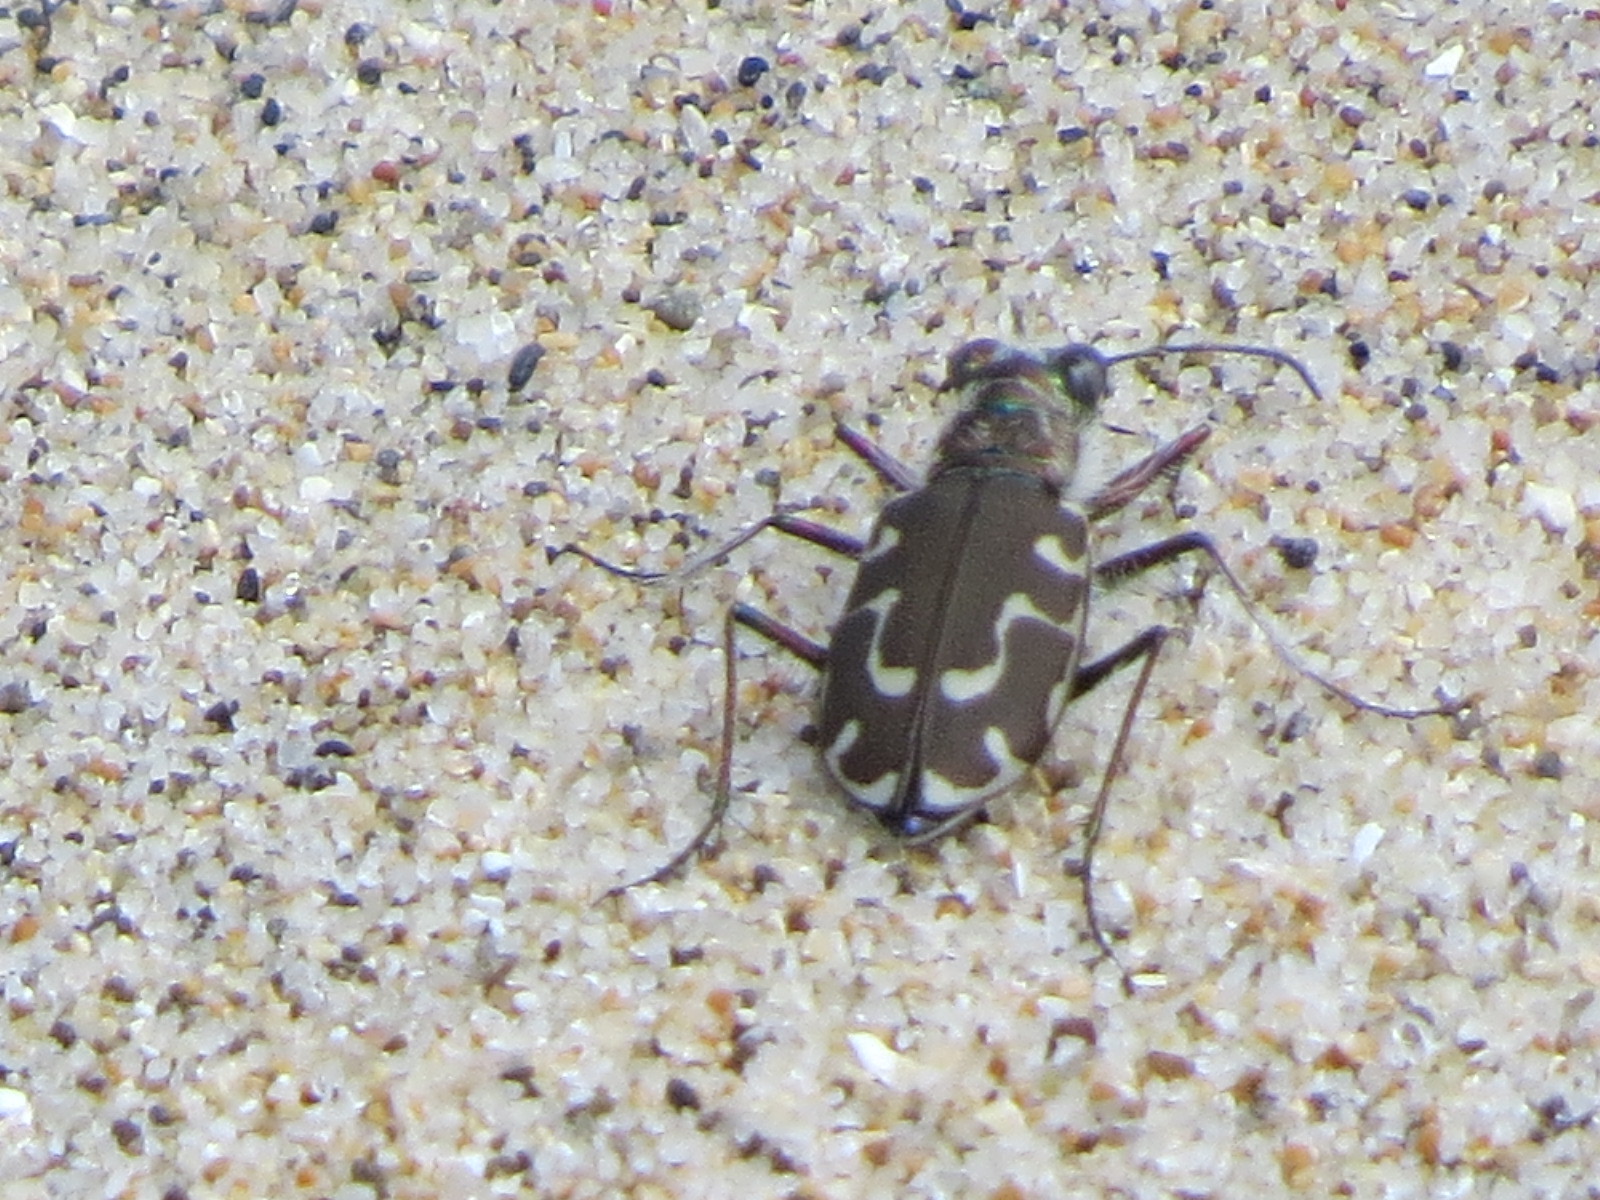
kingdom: Animalia
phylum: Arthropoda
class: Insecta
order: Coleoptera
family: Carabidae
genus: Cicindela
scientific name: Cicindela hirticollis
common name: Hairy-necked tiger beetle
